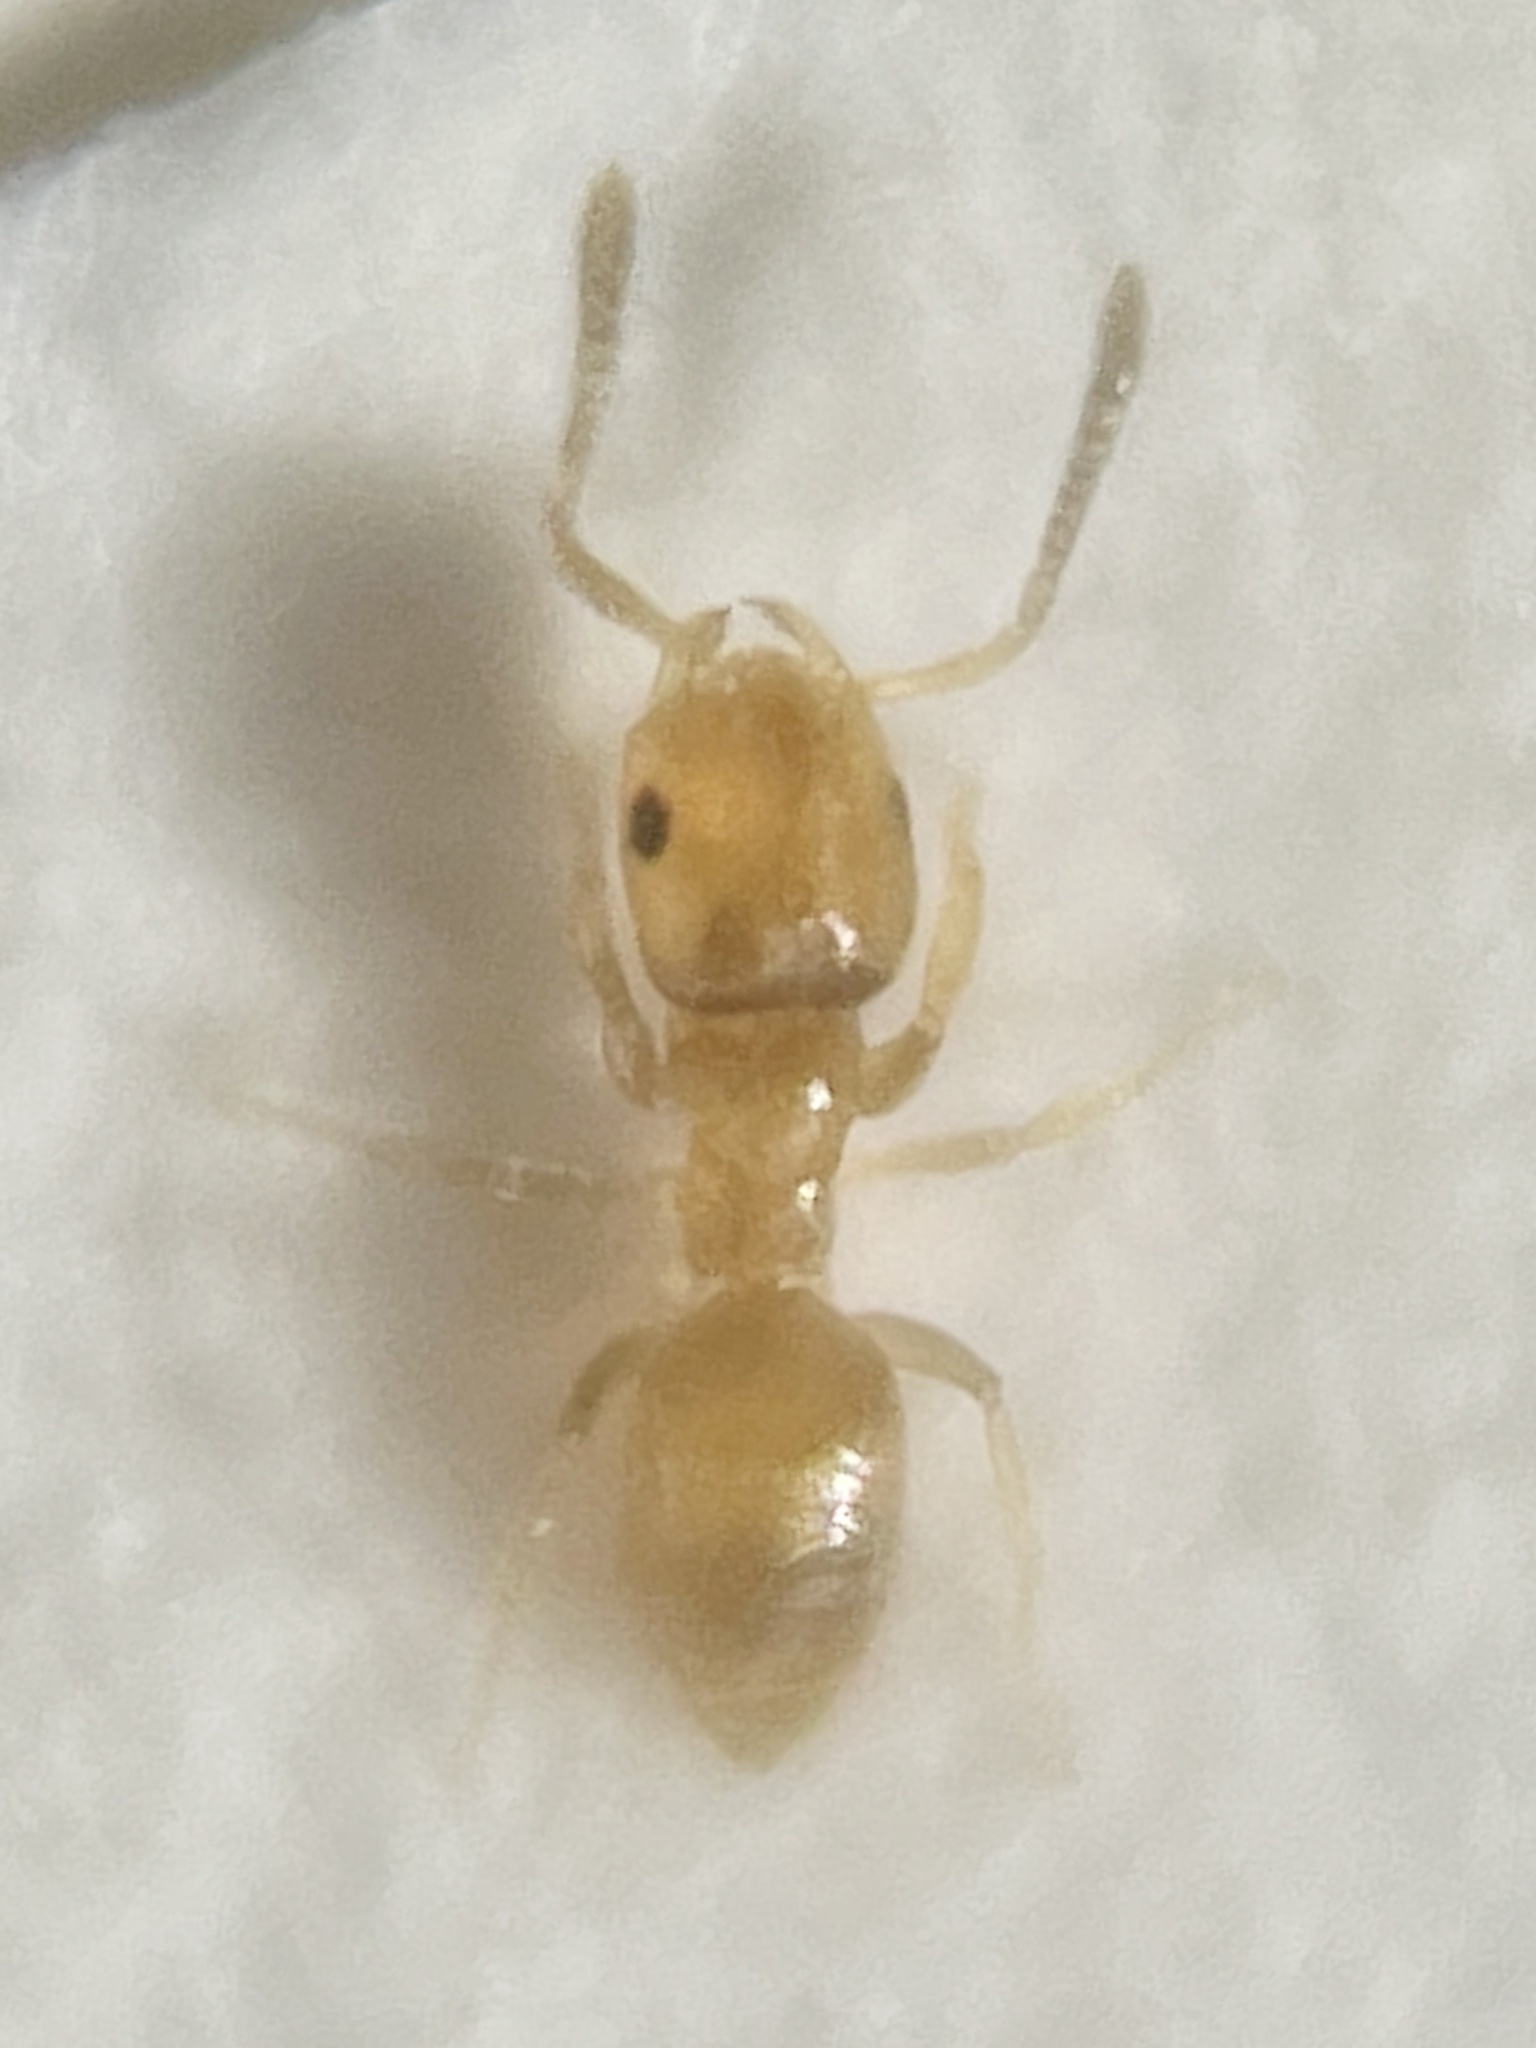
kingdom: Animalia
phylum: Arthropoda
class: Insecta
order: Hymenoptera
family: Formicidae
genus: Brachymyrmex
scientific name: Brachymyrmex obscurior
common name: Obscure rover ant
